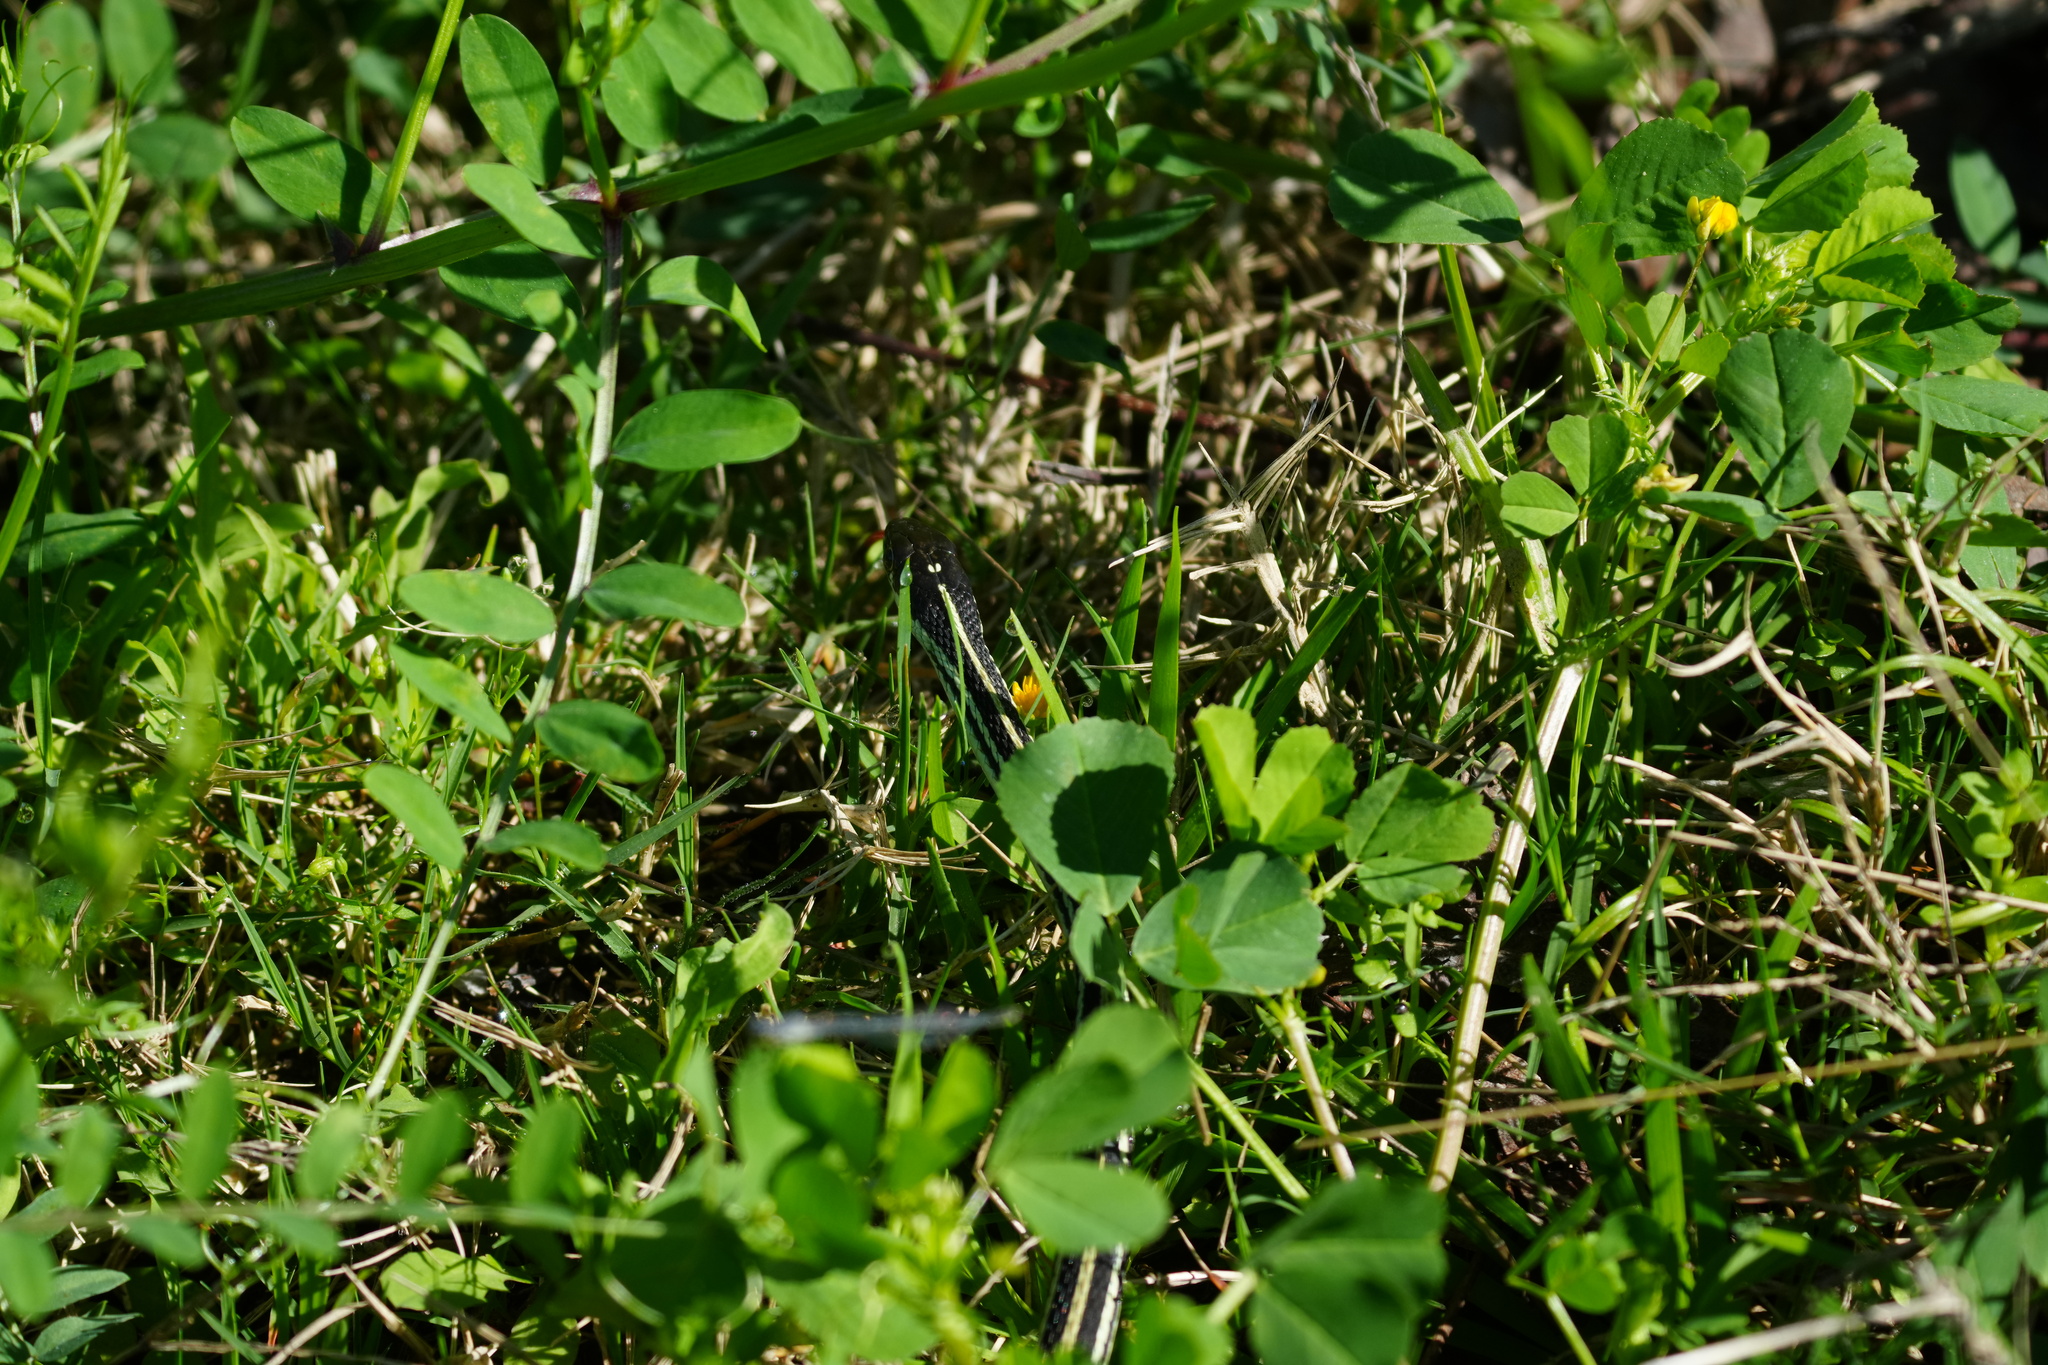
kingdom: Animalia
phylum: Chordata
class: Squamata
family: Colubridae
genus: Thamnophis
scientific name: Thamnophis proximus
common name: Western ribbon snake
